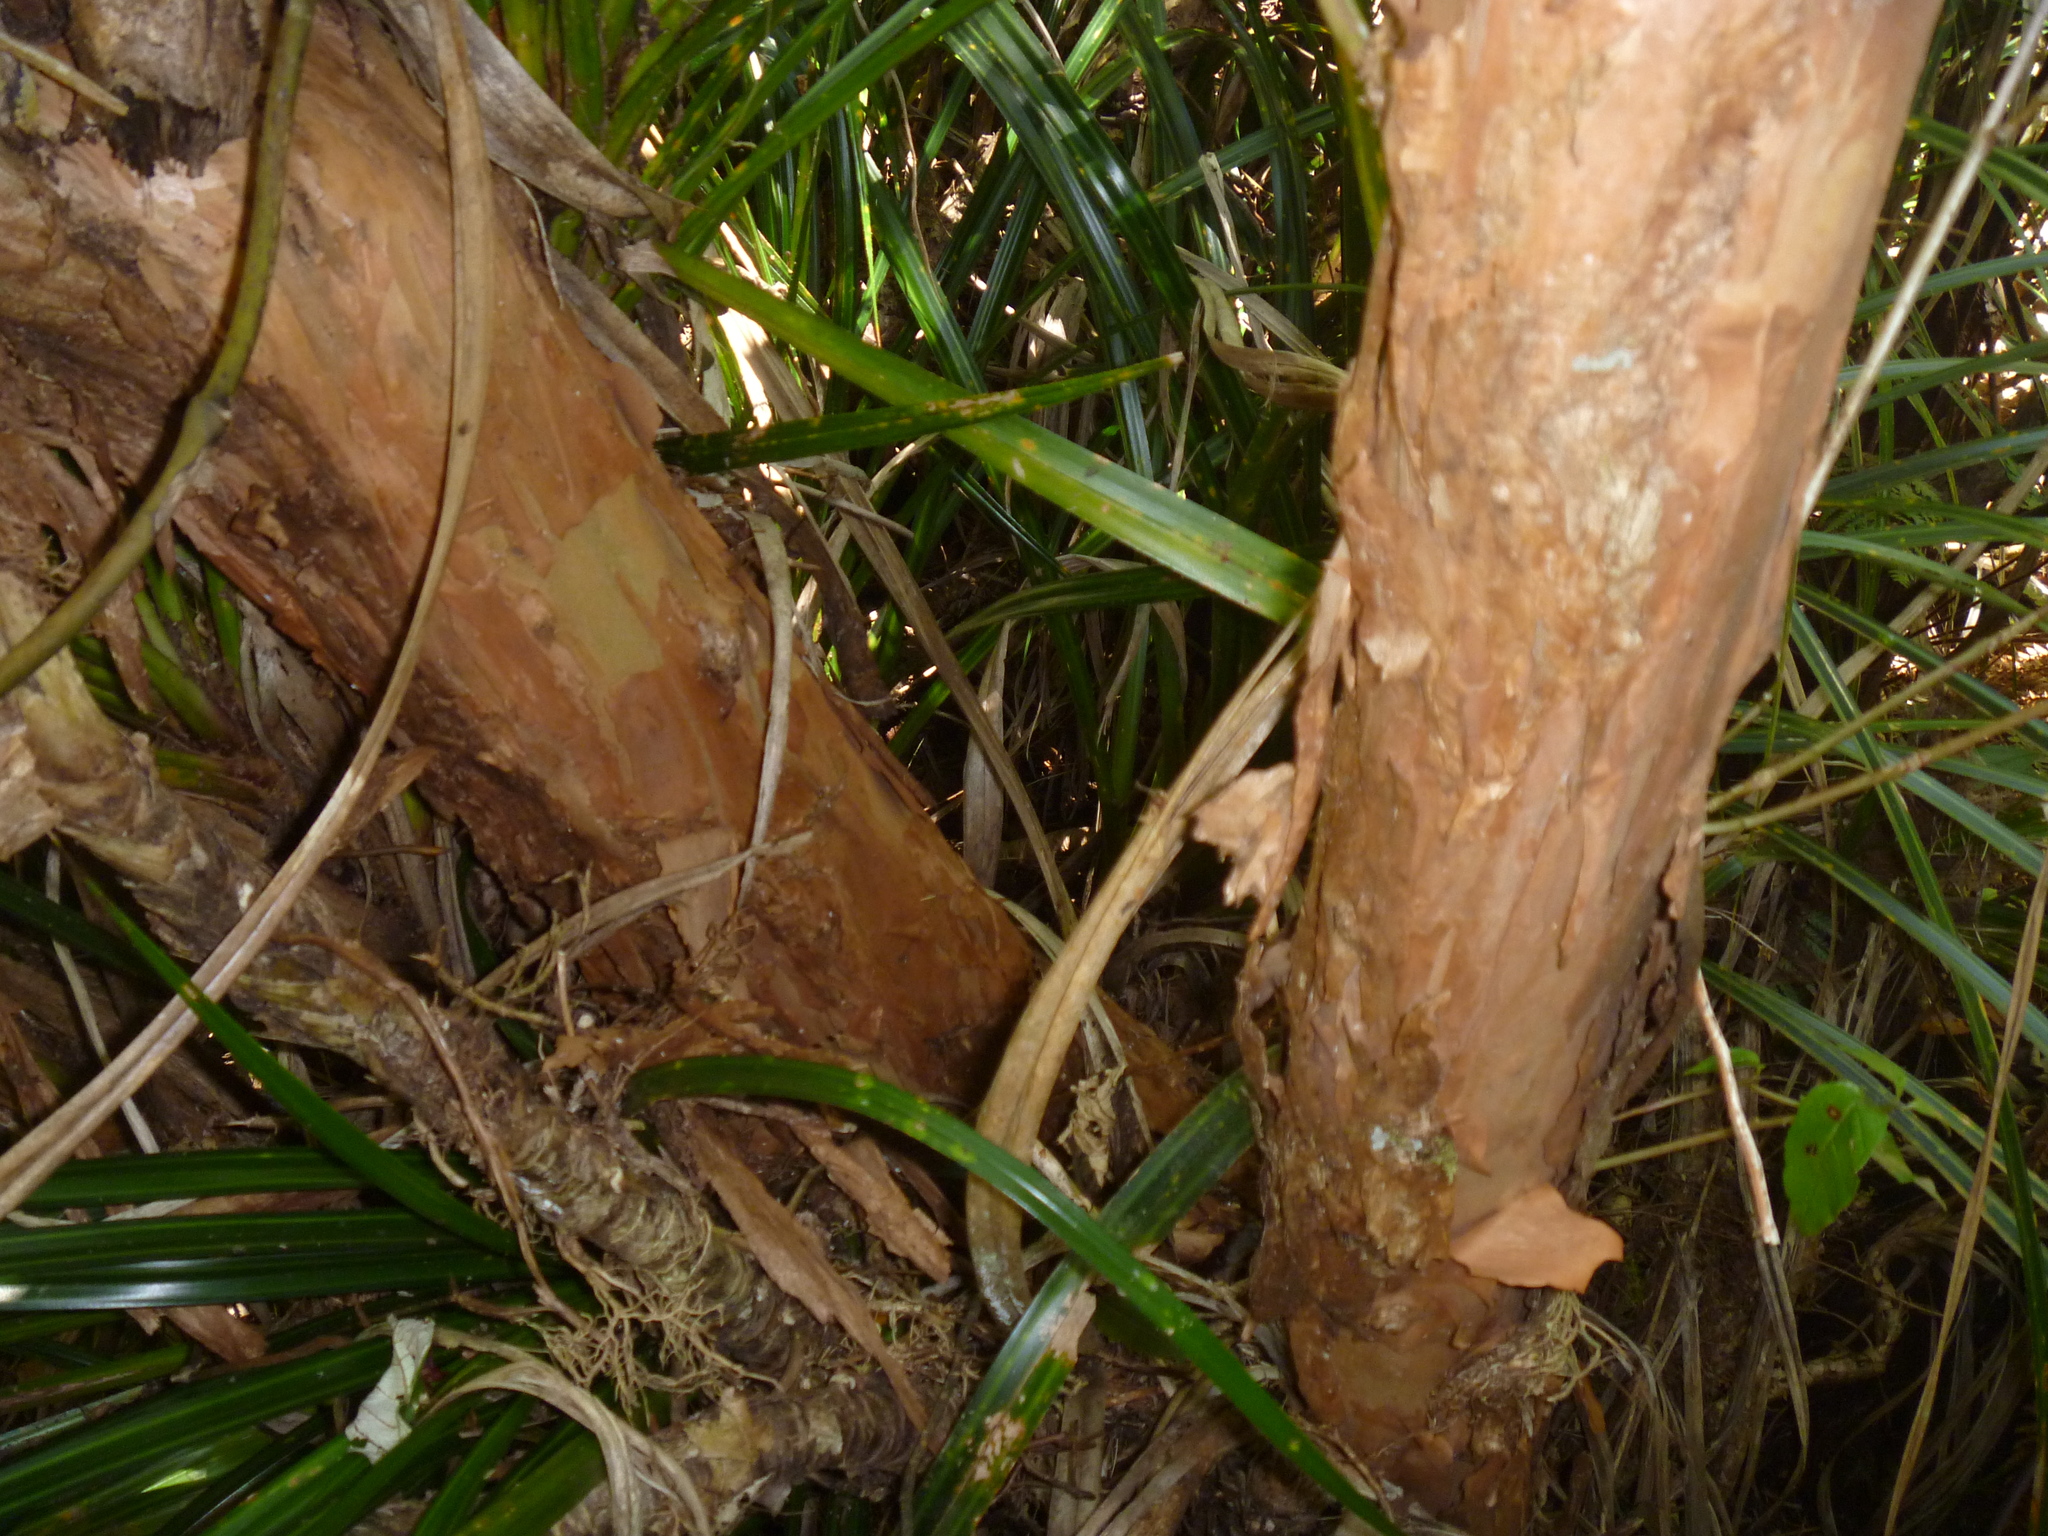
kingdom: Plantae
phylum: Tracheophyta
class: Magnoliopsida
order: Myrtales
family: Onagraceae
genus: Fuchsia
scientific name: Fuchsia excorticata
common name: Tree fuchsia
